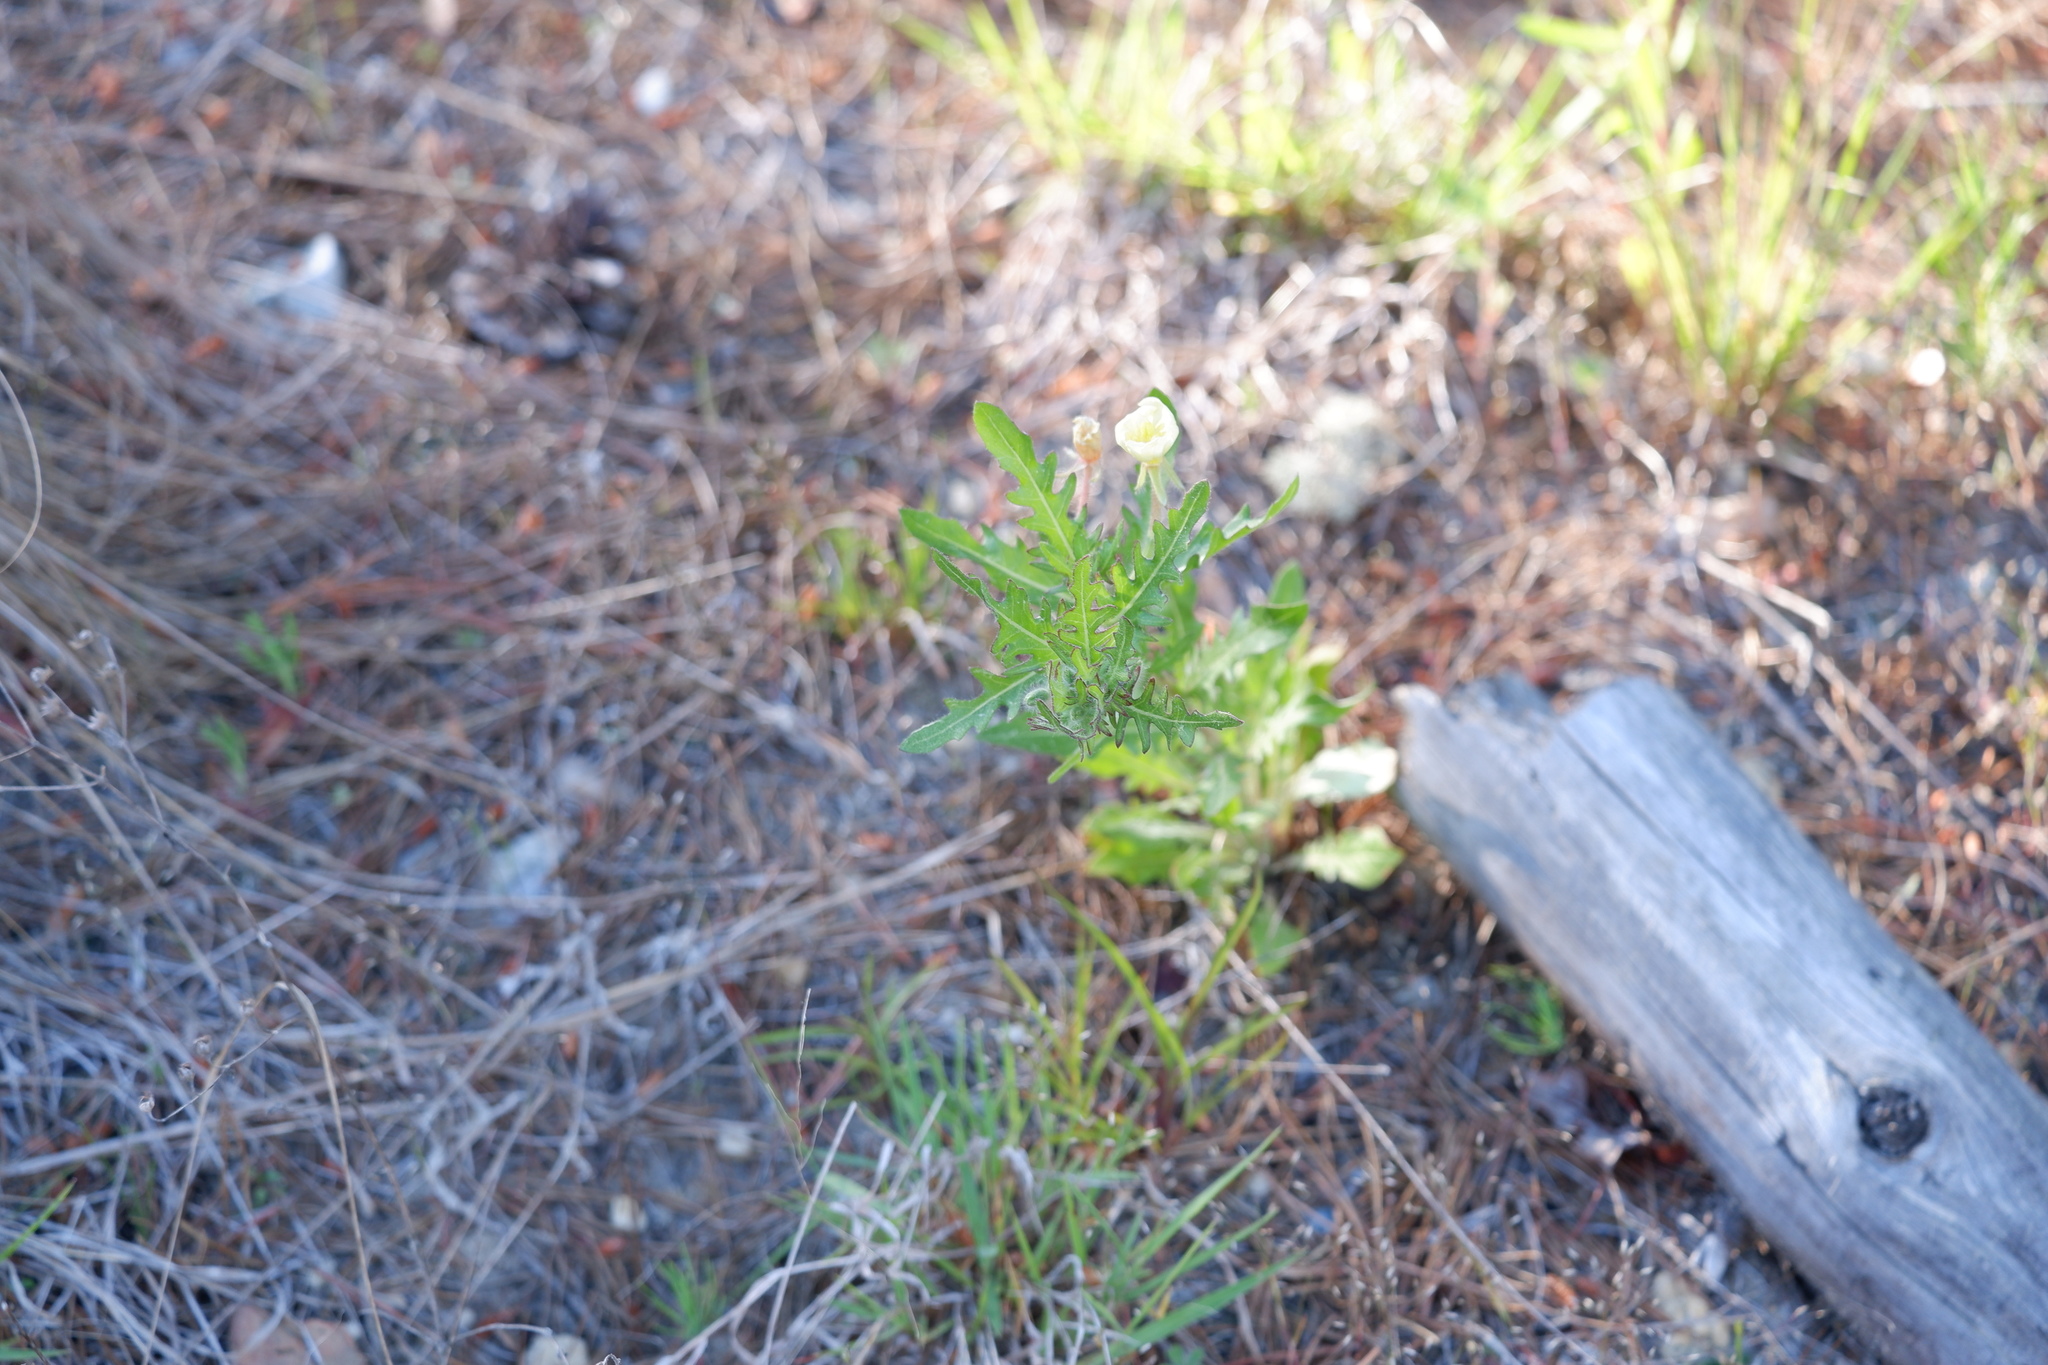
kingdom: Plantae
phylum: Tracheophyta
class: Magnoliopsida
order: Myrtales
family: Onagraceae
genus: Oenothera
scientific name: Oenothera laciniata
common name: Cut-leaved evening-primrose
